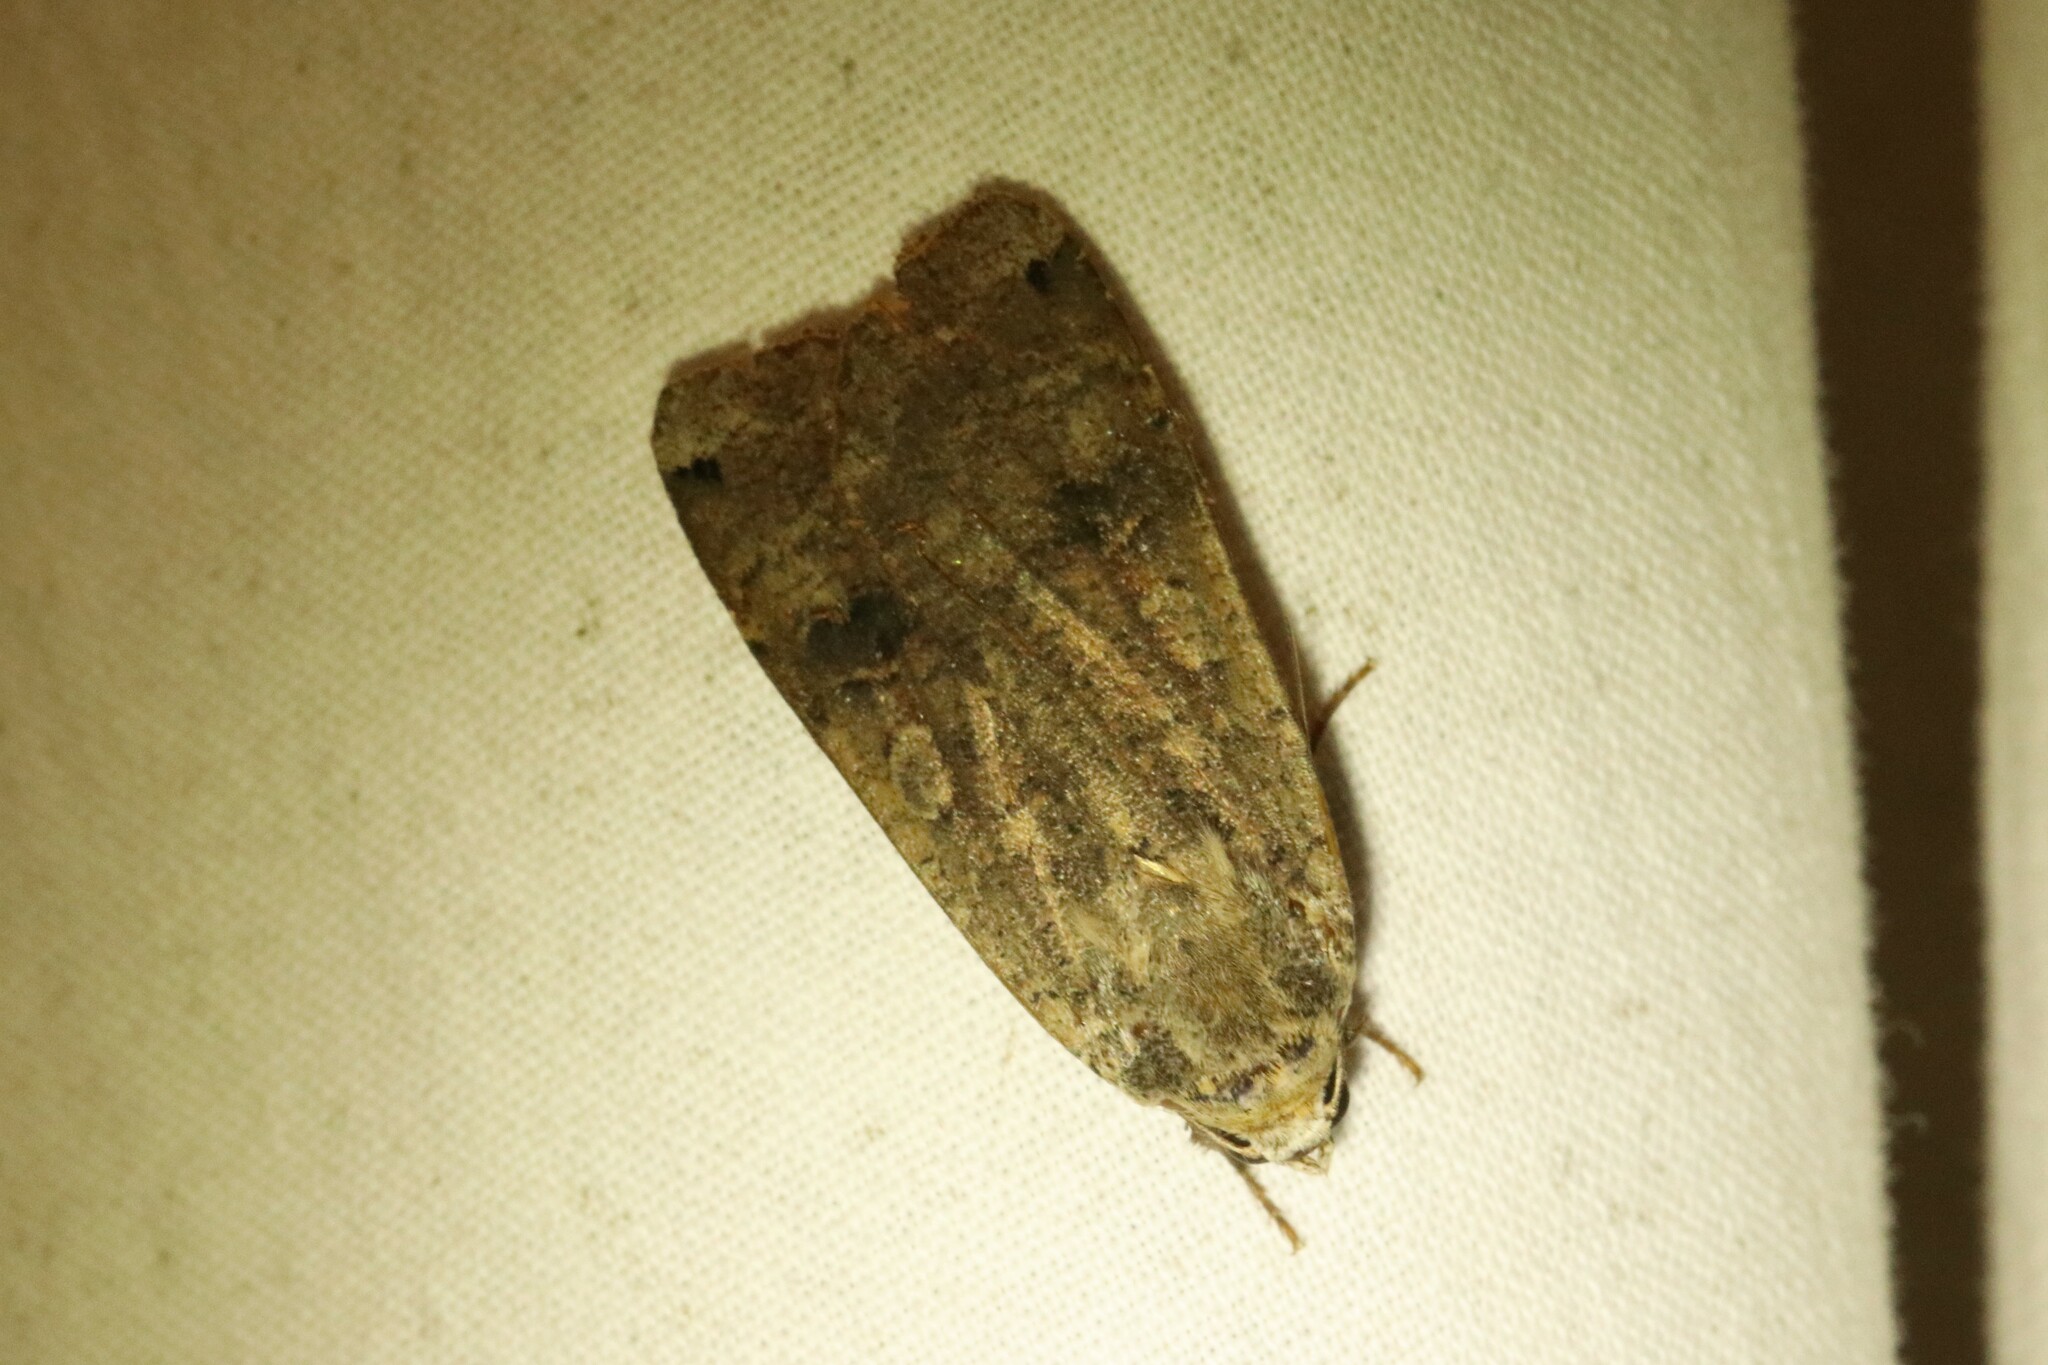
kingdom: Animalia
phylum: Arthropoda
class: Insecta
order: Lepidoptera
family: Noctuidae
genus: Noctua
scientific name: Noctua pronuba
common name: Large yellow underwing
